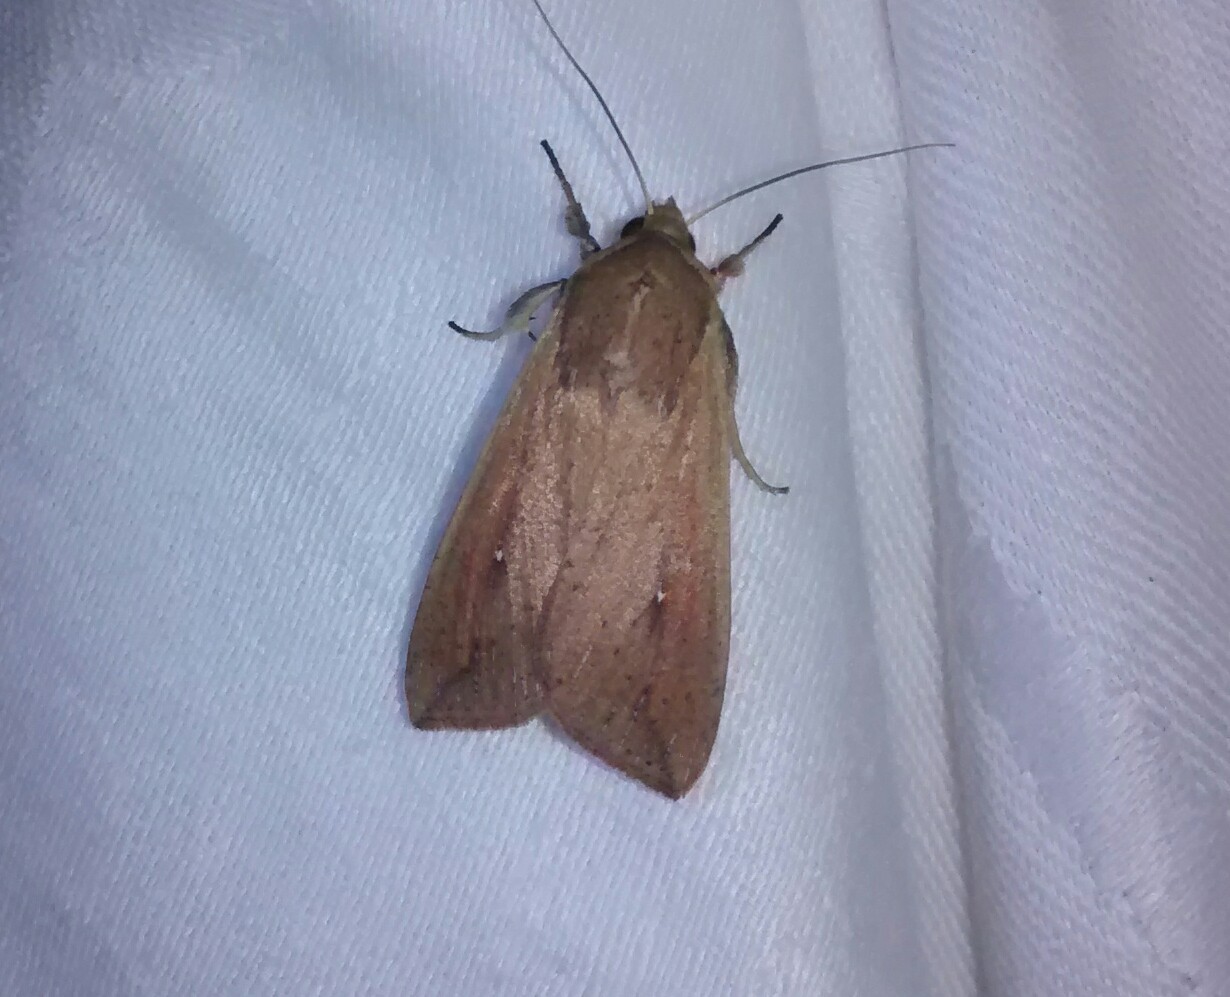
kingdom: Animalia
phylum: Arthropoda
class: Insecta
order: Lepidoptera
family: Noctuidae
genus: Mythimna
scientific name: Mythimna unipuncta
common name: White-speck
